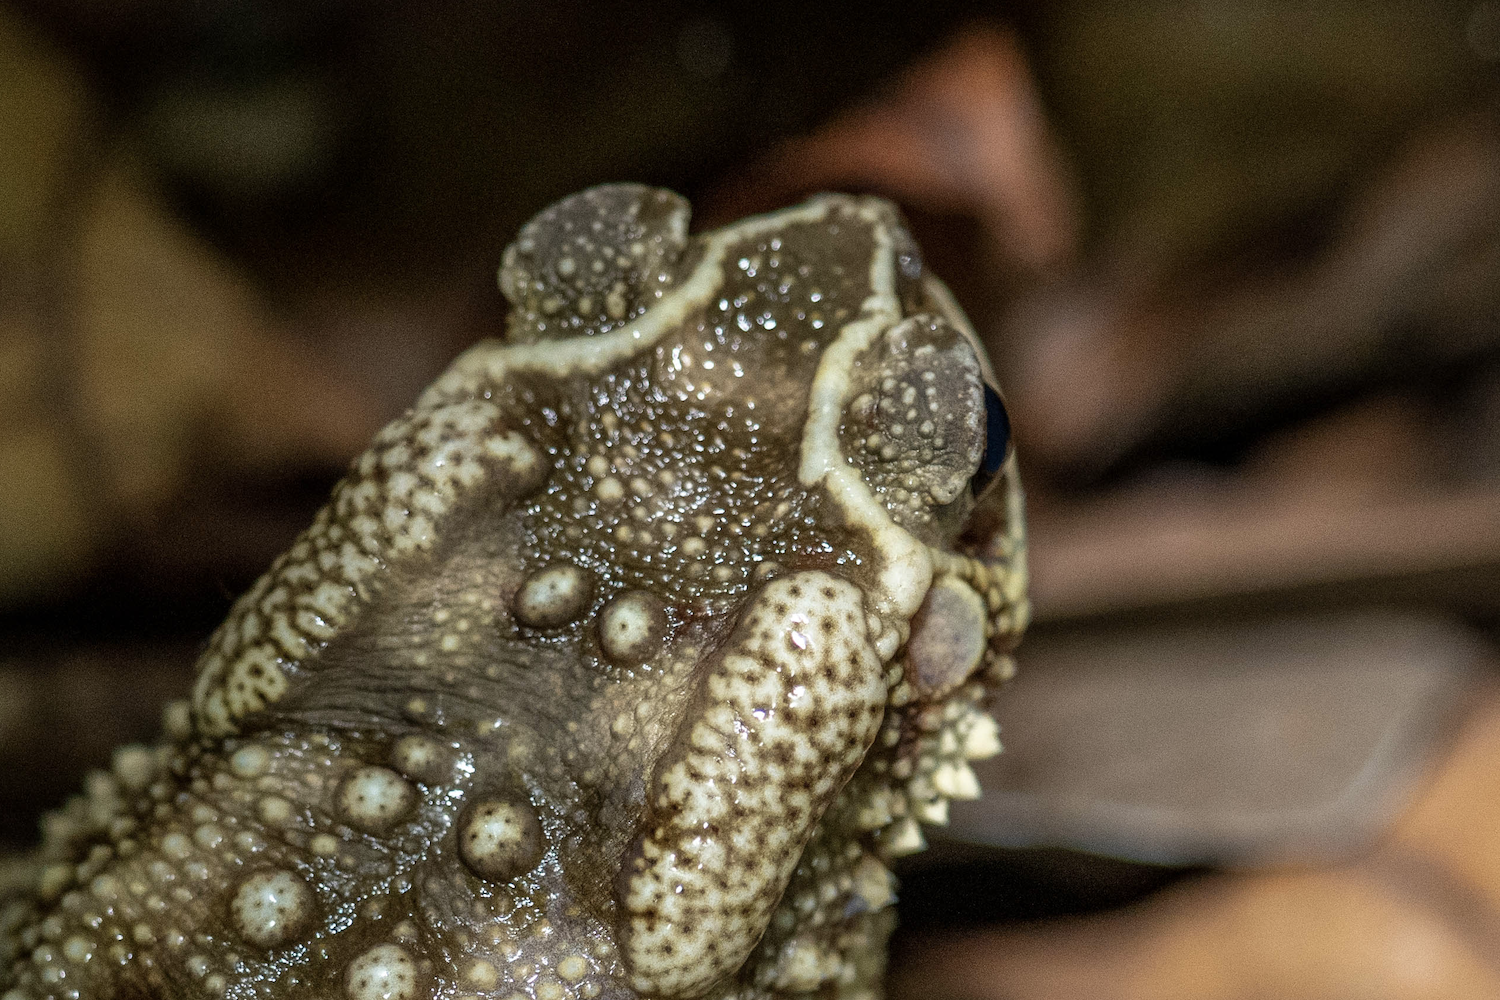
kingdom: Animalia
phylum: Chordata
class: Amphibia
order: Anura
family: Bufonidae
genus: Duttaphrynus
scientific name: Duttaphrynus melanostictus
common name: Common sunda toad
